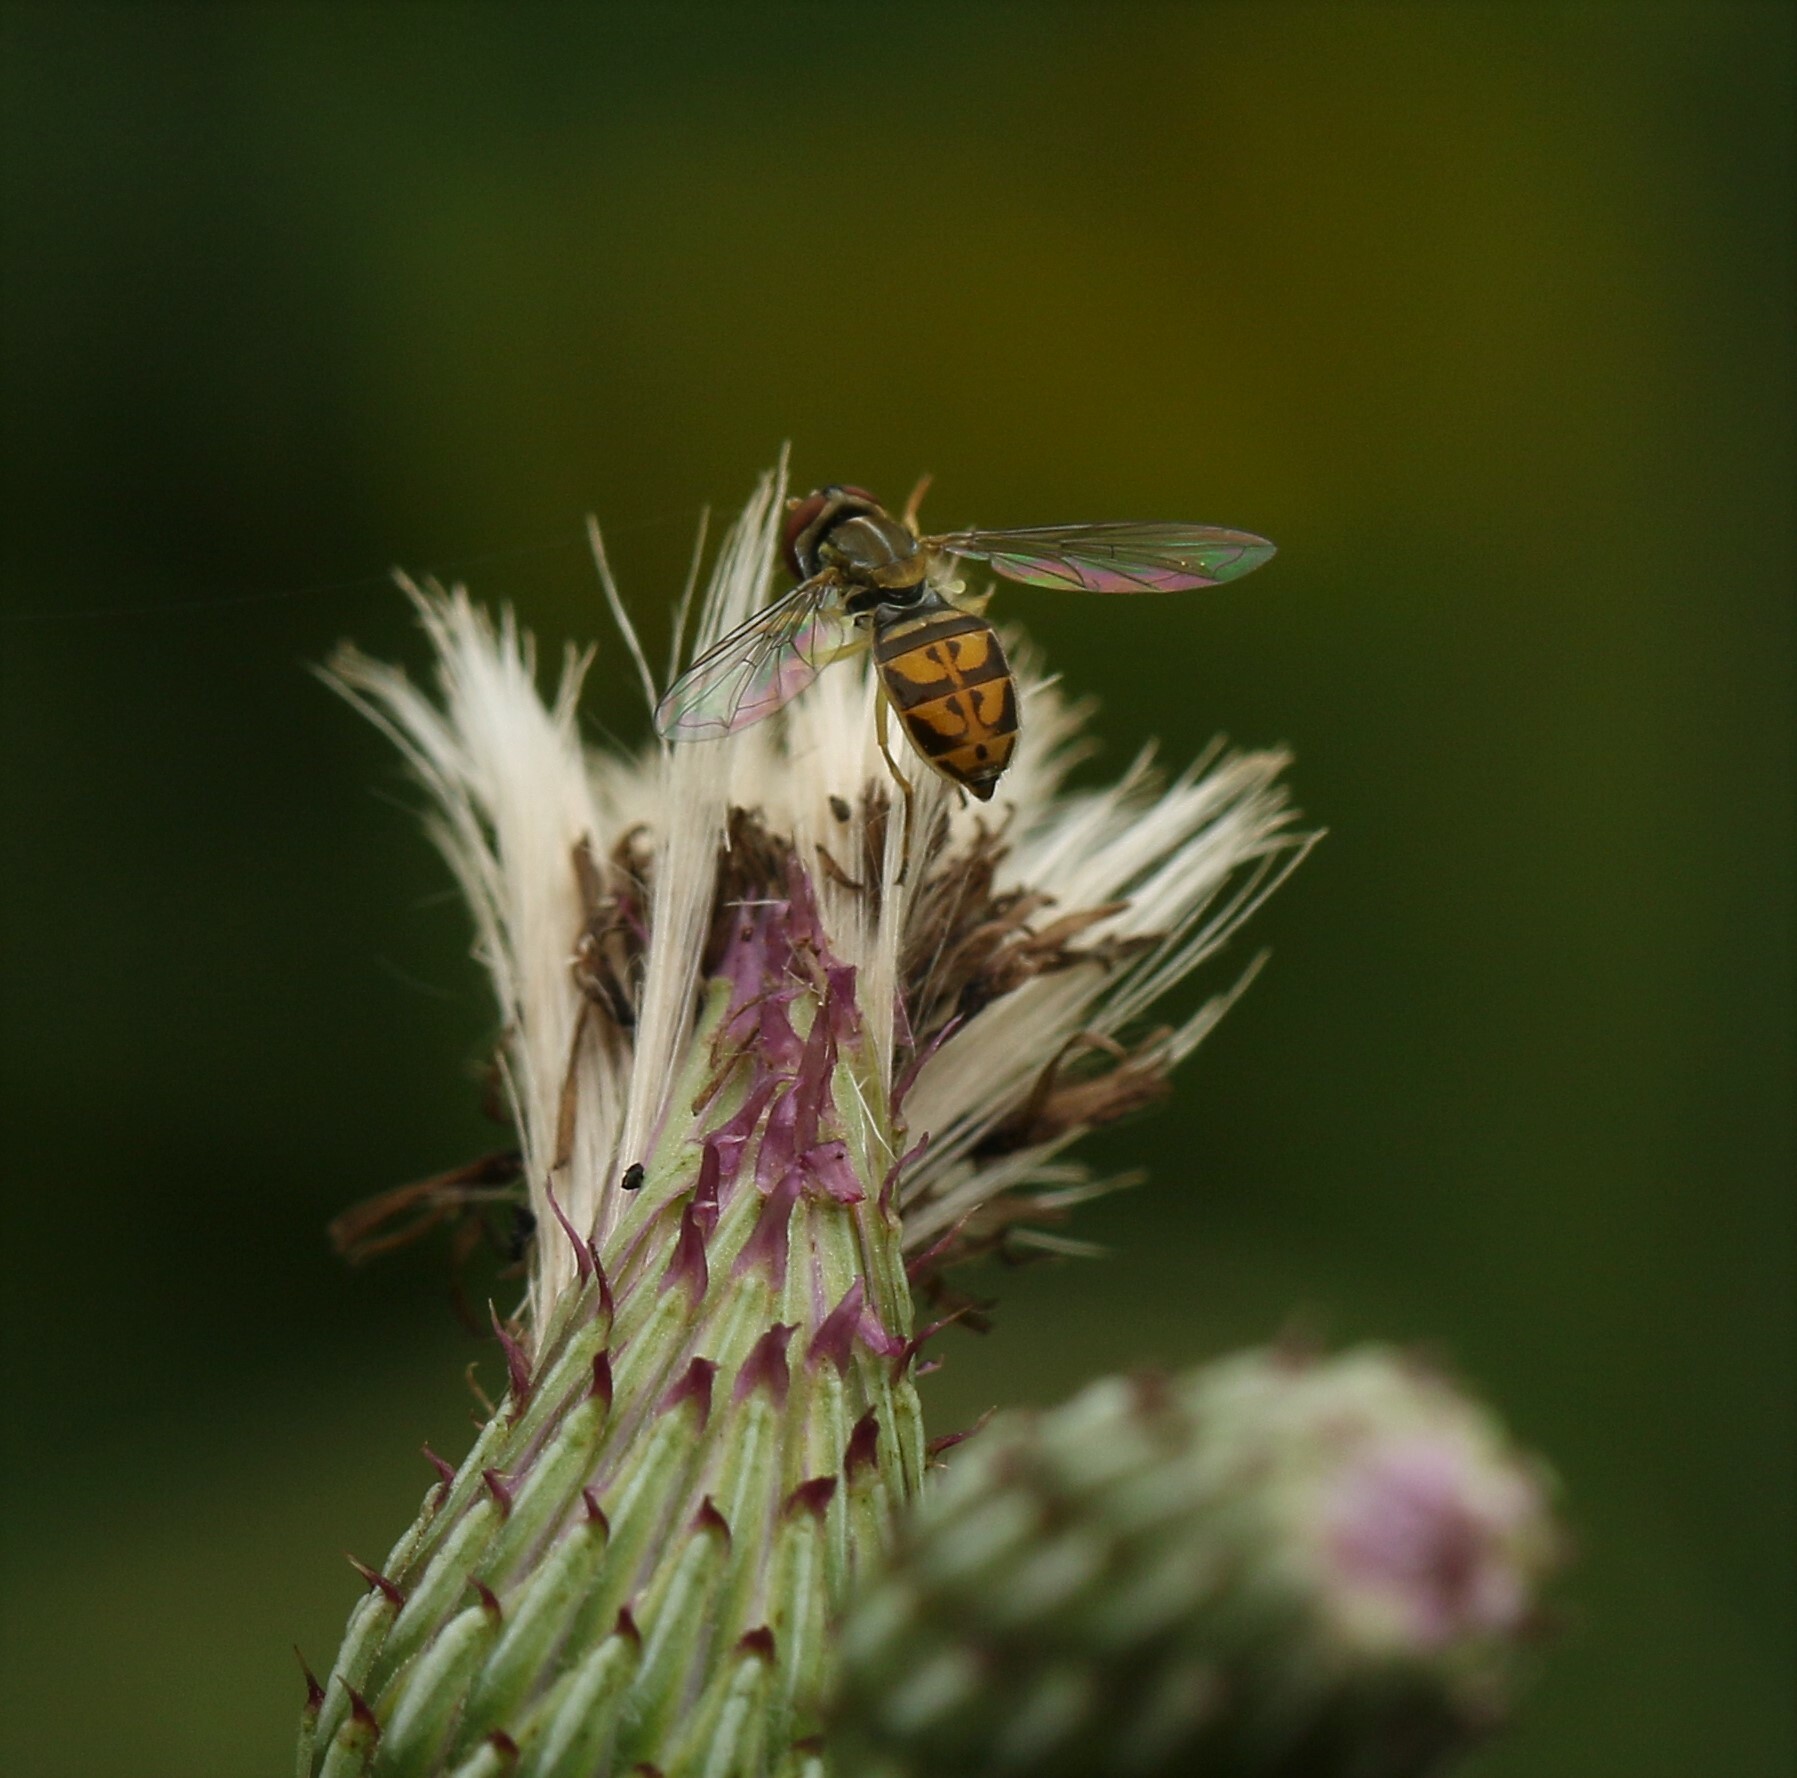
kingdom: Animalia
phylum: Arthropoda
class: Insecta
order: Diptera
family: Syrphidae
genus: Toxomerus
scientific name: Toxomerus marginatus
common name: Syrphid fly
